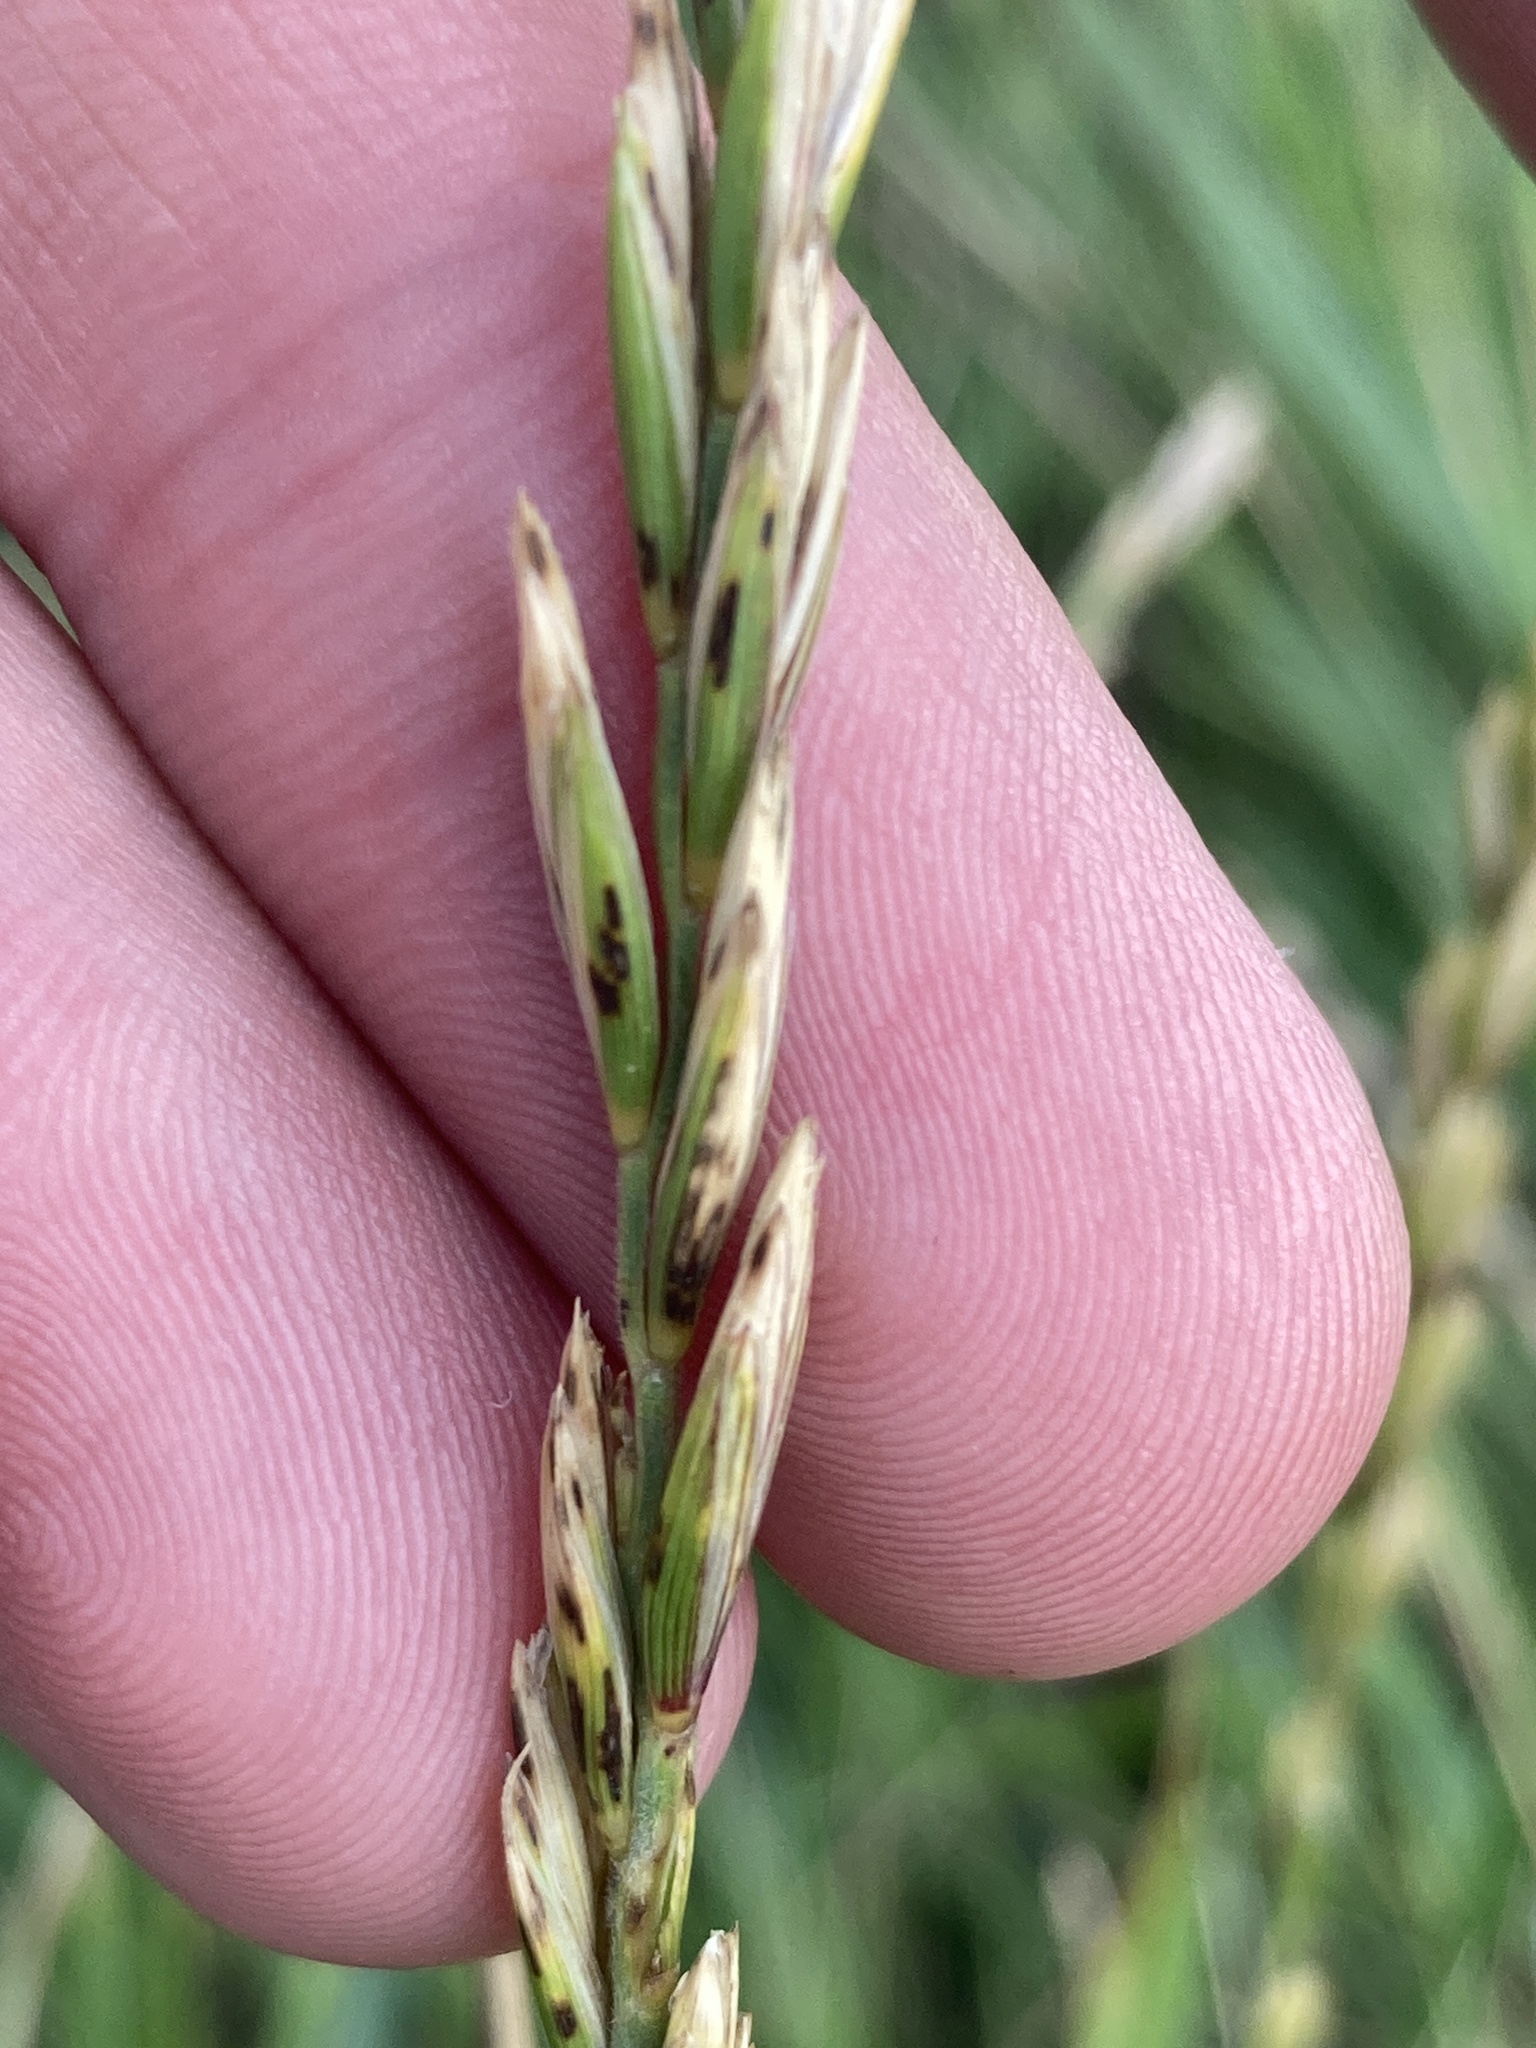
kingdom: Plantae
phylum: Tracheophyta
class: Liliopsida
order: Poales
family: Poaceae
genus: Elymus
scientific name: Elymus repens
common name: Quackgrass
